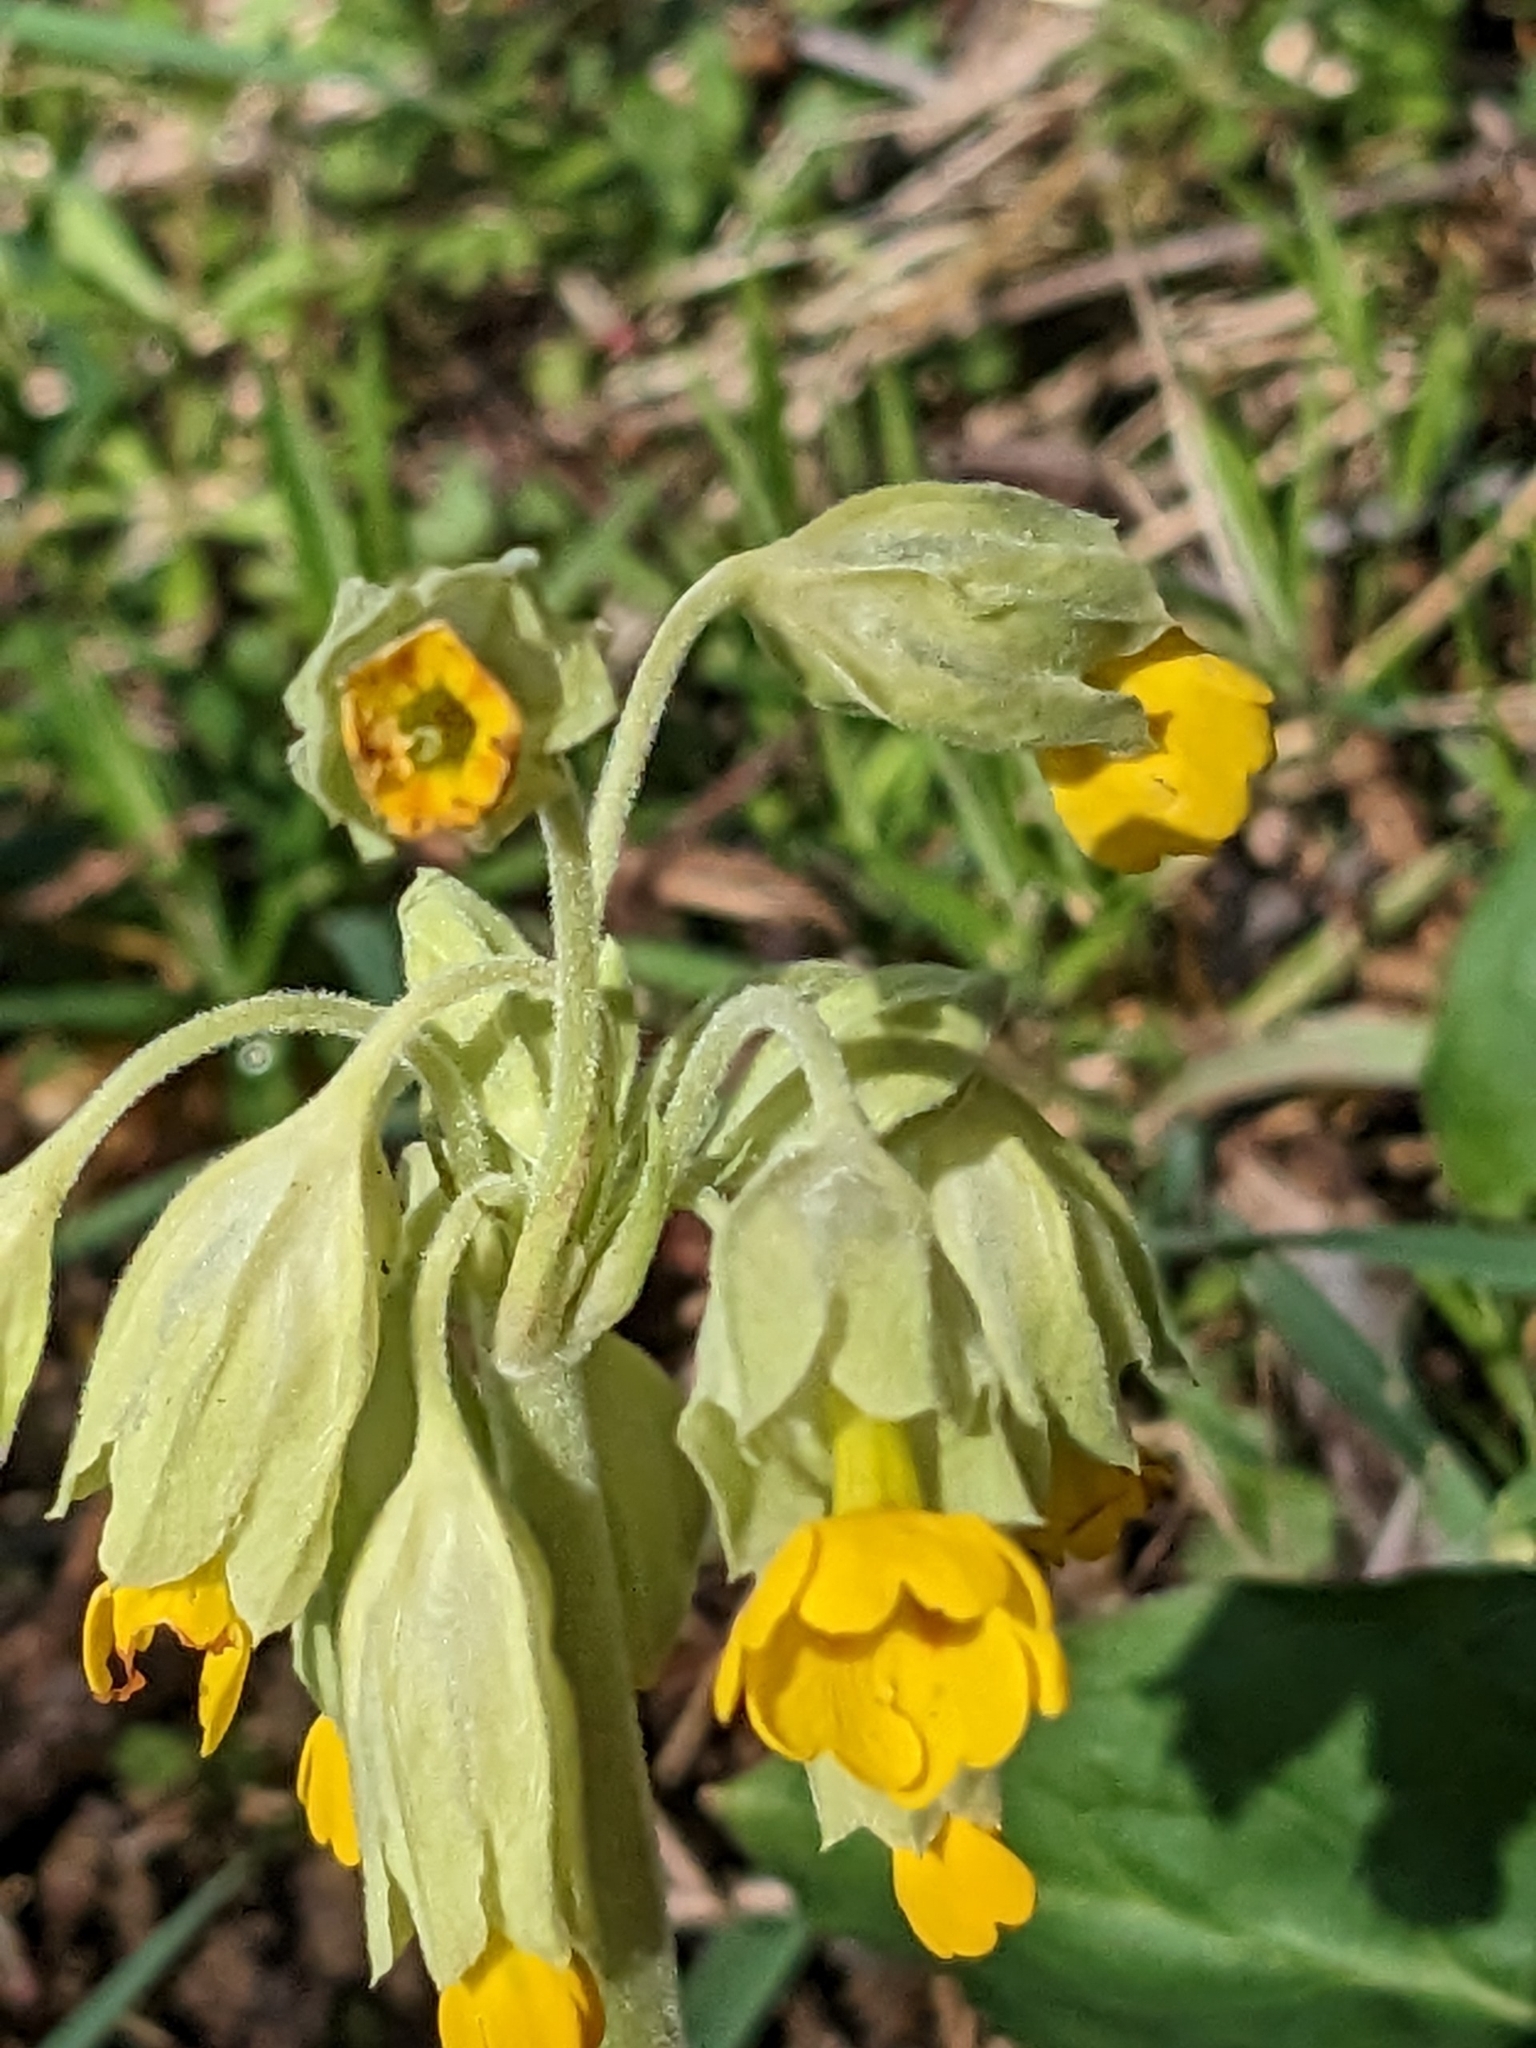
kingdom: Plantae
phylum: Tracheophyta
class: Magnoliopsida
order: Ericales
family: Primulaceae
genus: Primula
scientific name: Primula veris
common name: Cowslip
